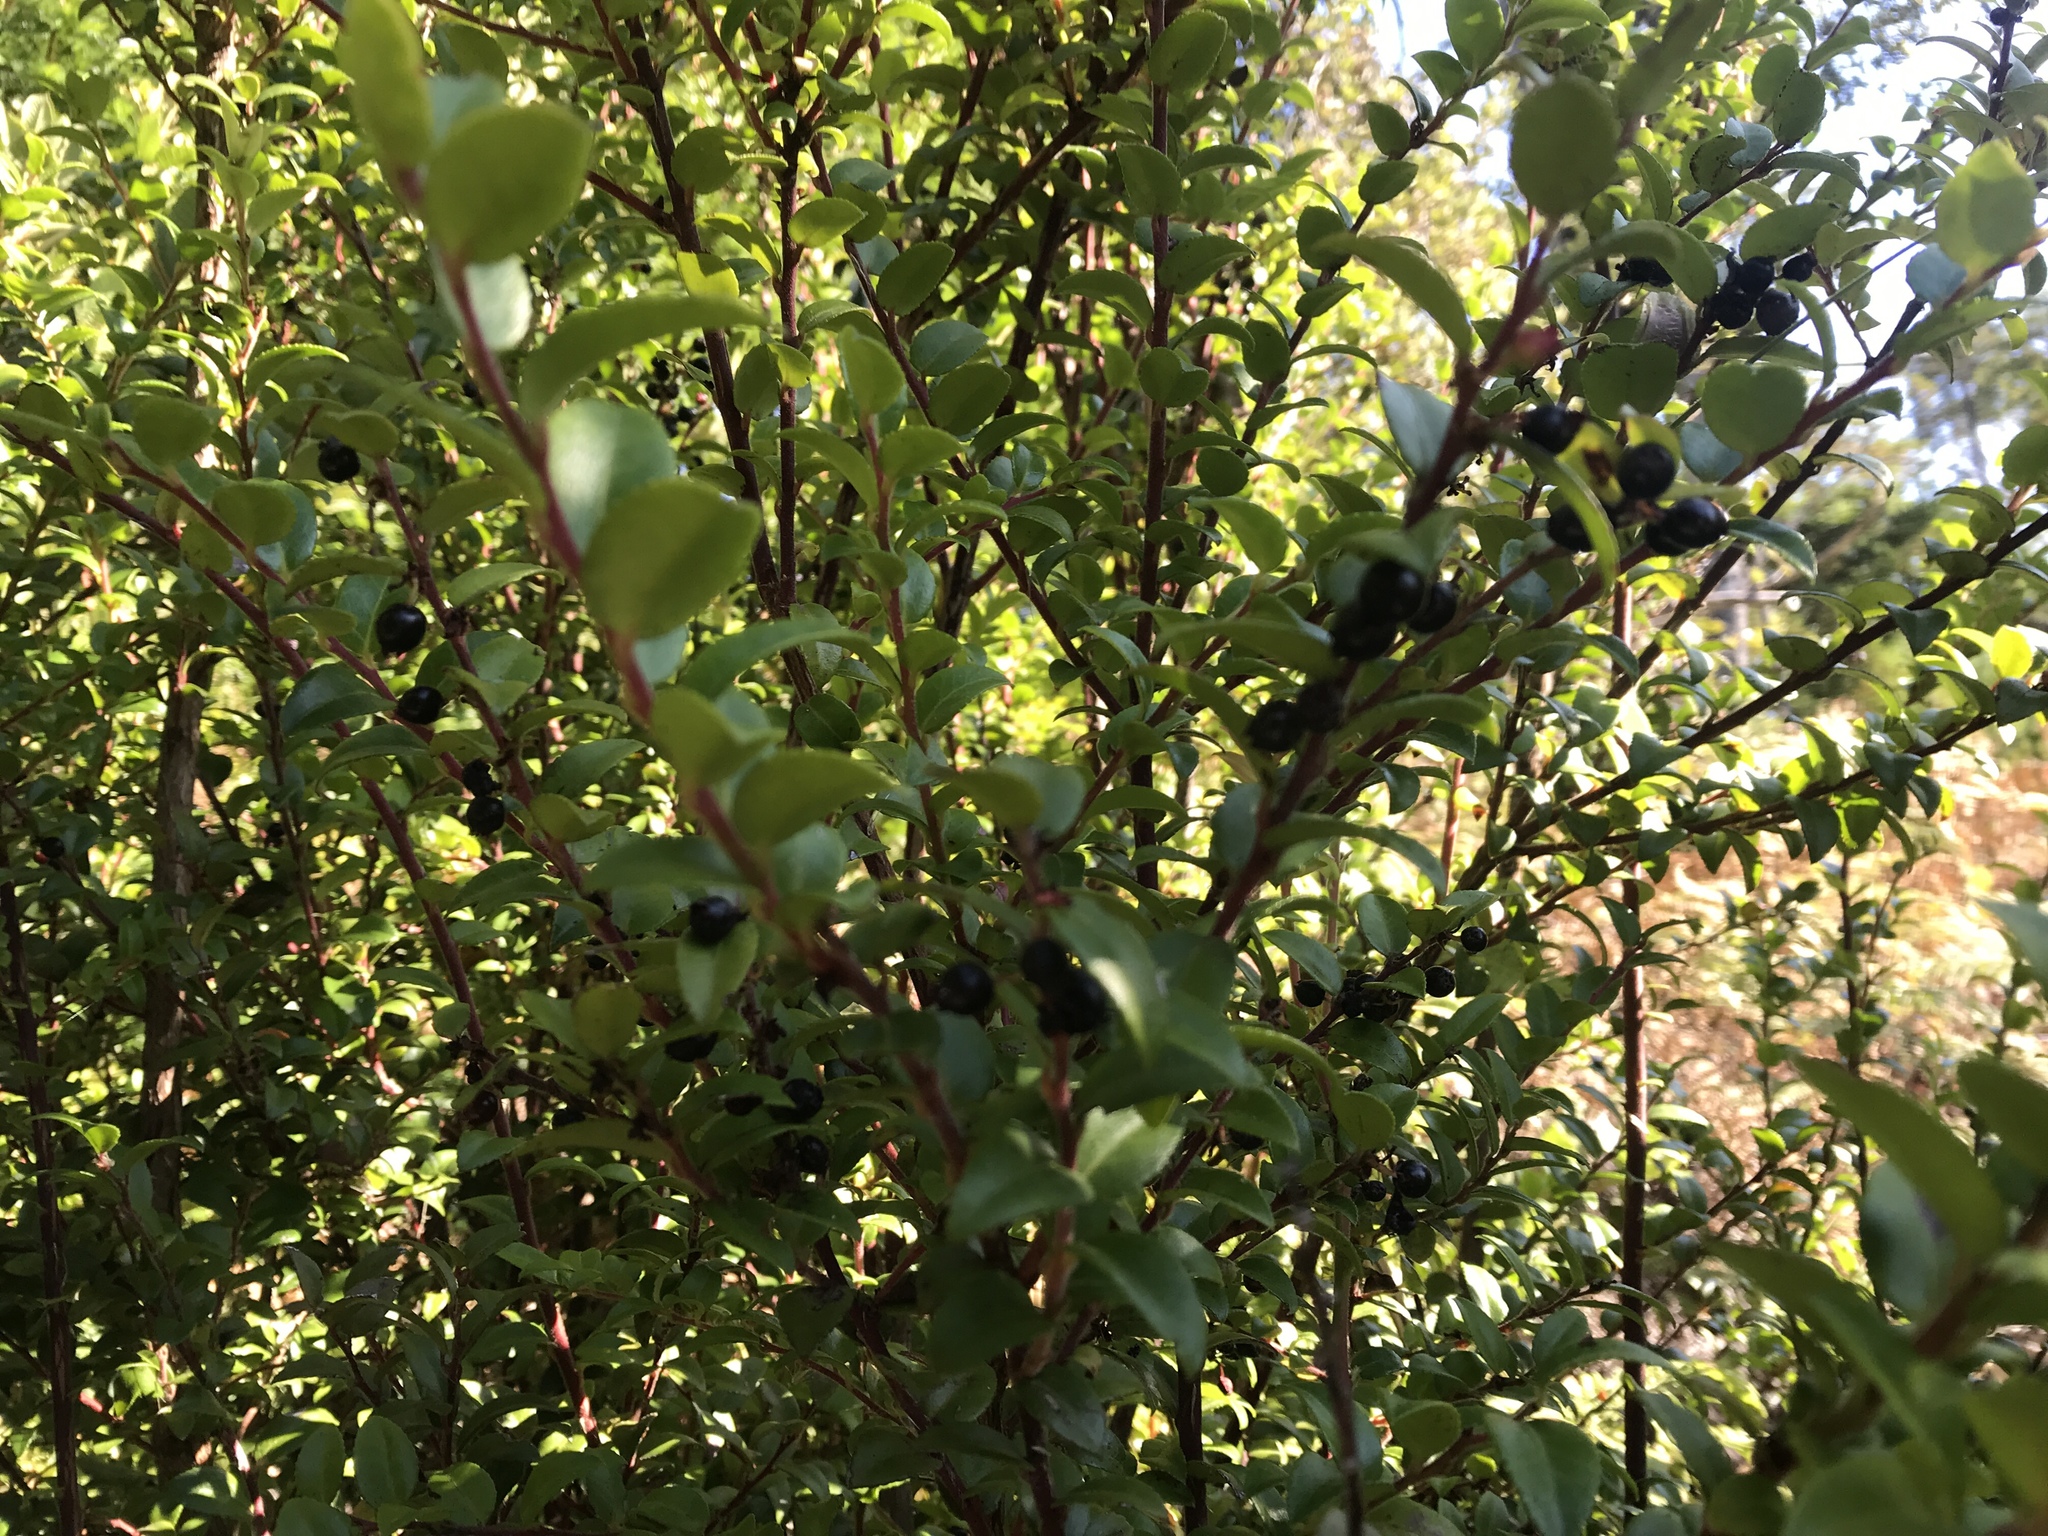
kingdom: Plantae
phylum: Tracheophyta
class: Magnoliopsida
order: Ericales
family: Ericaceae
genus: Vaccinium
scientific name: Vaccinium ovatum
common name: California-huckleberry
